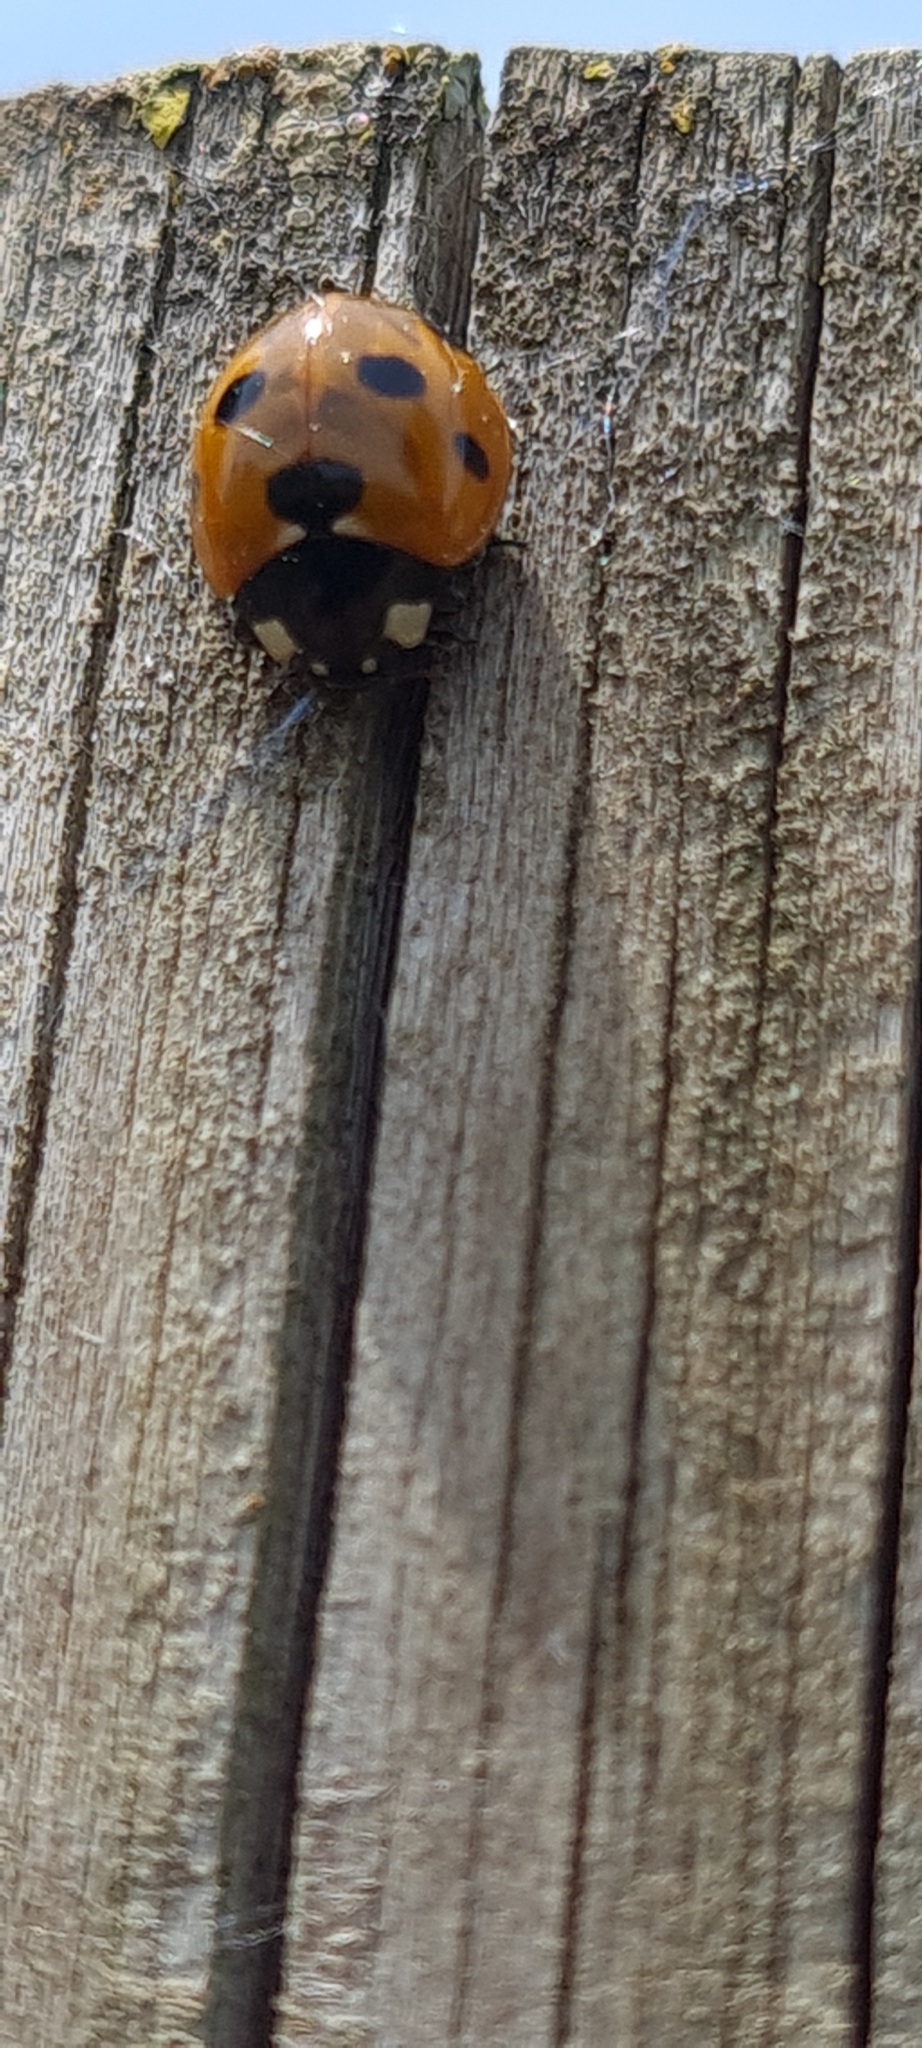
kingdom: Animalia
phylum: Arthropoda
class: Insecta
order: Coleoptera
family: Coccinellidae
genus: Coccinella
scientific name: Coccinella septempunctata
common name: Sevenspotted lady beetle
